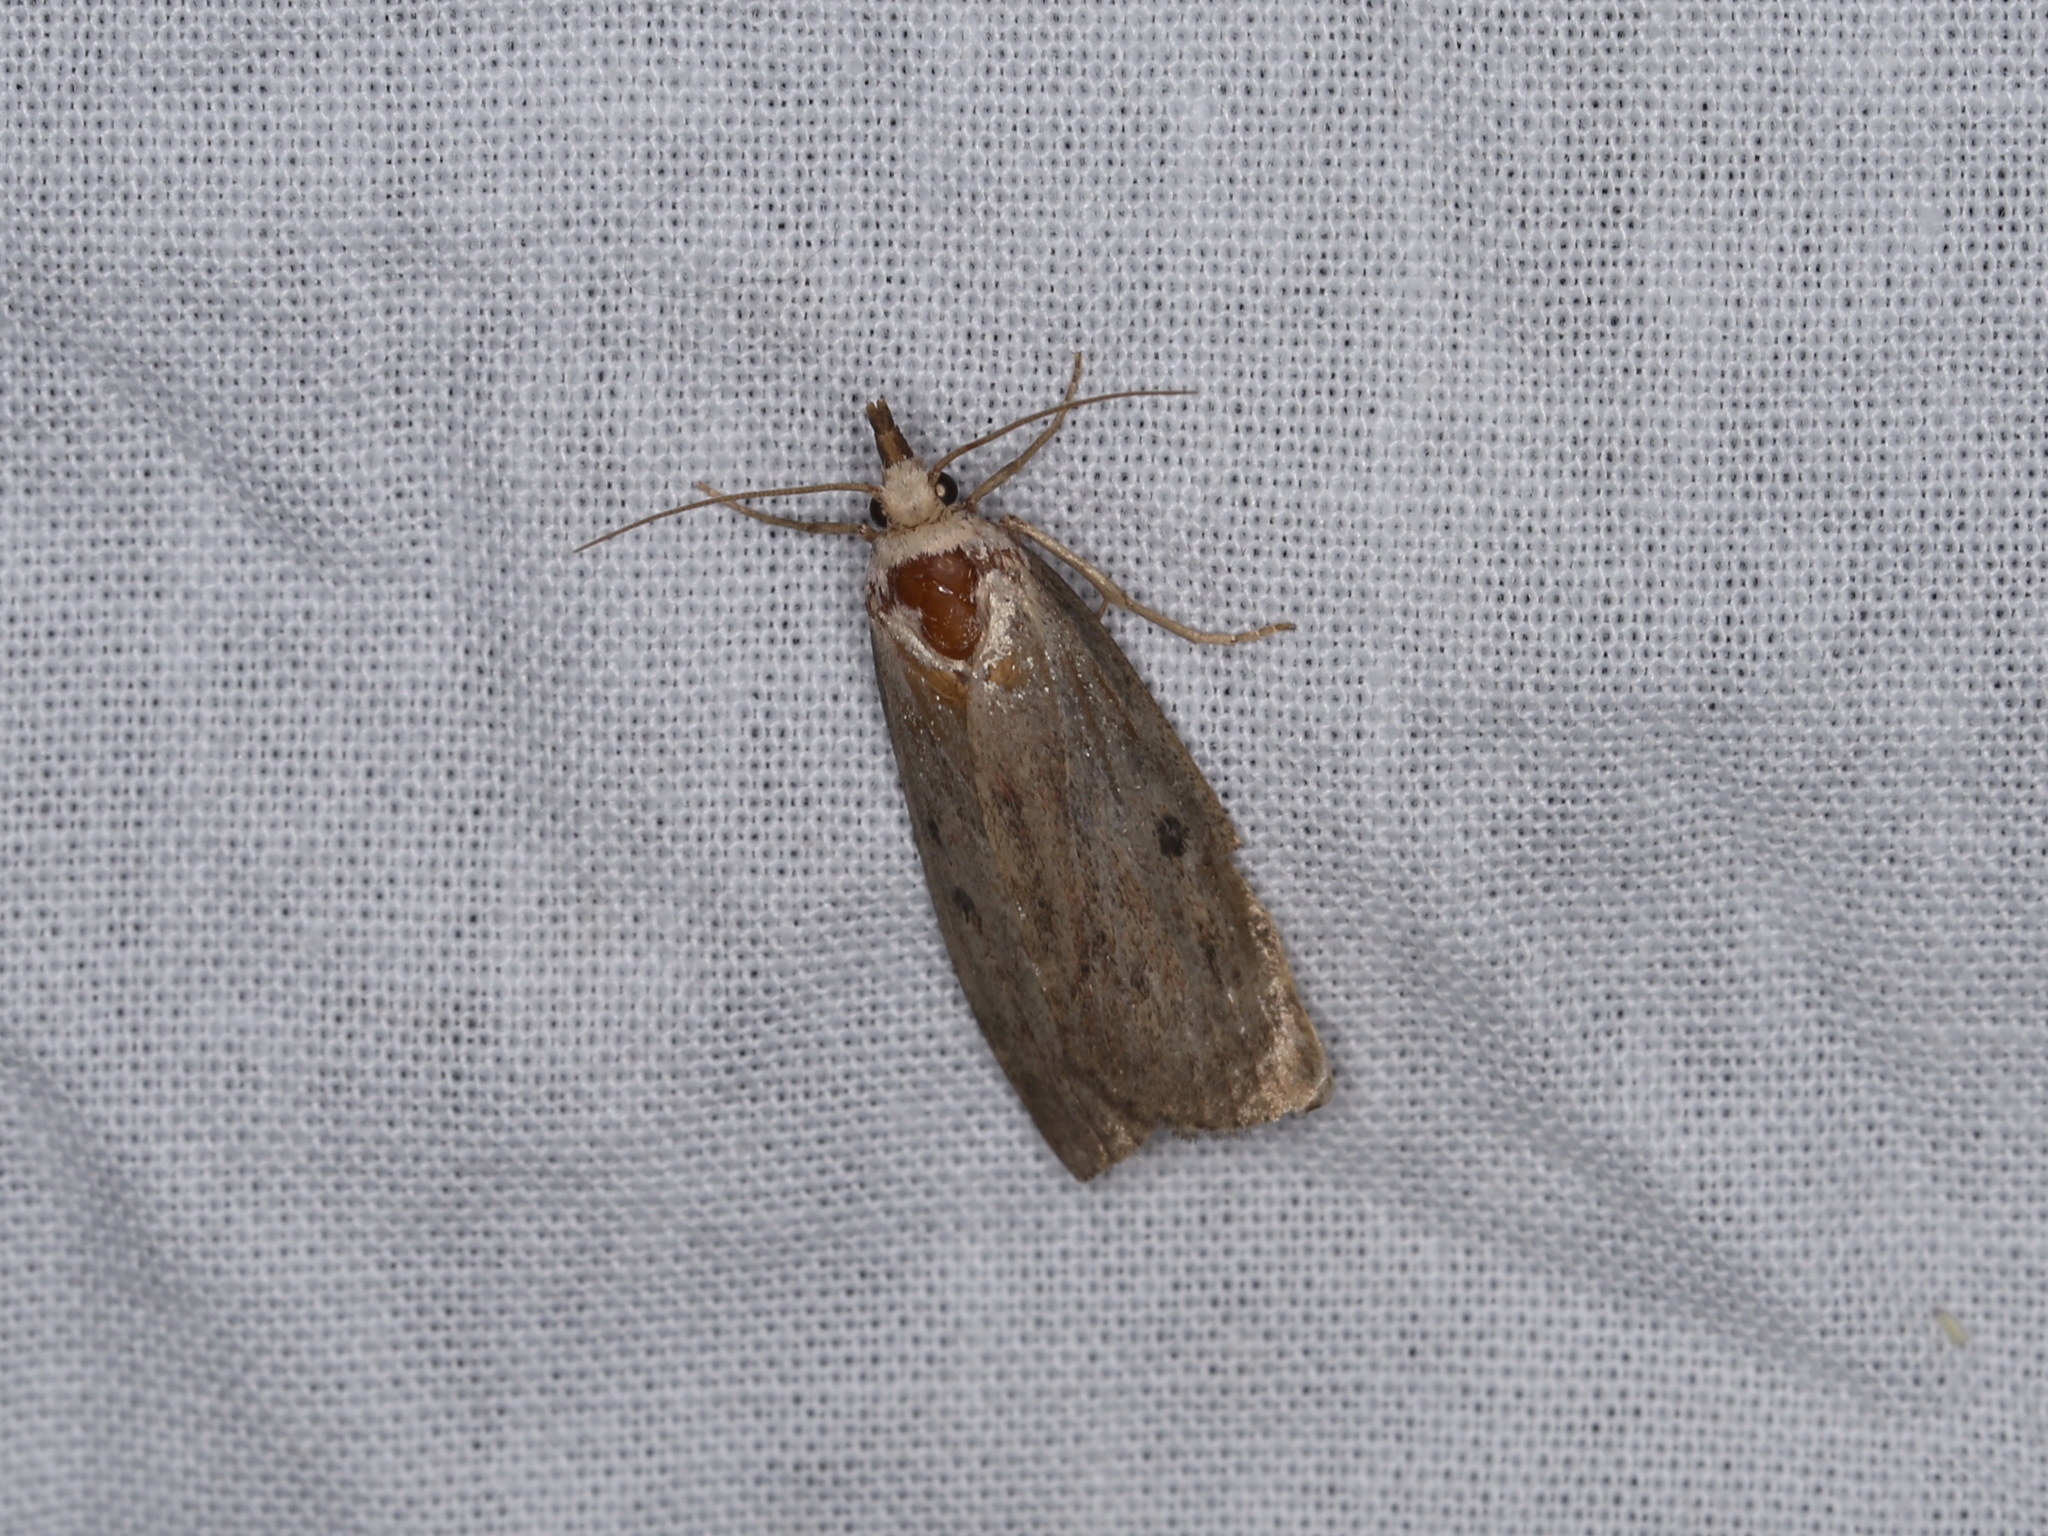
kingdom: Animalia
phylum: Arthropoda
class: Insecta
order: Lepidoptera
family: Pyralidae
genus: Aphomia
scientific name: Aphomia sociella
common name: Bee moth
